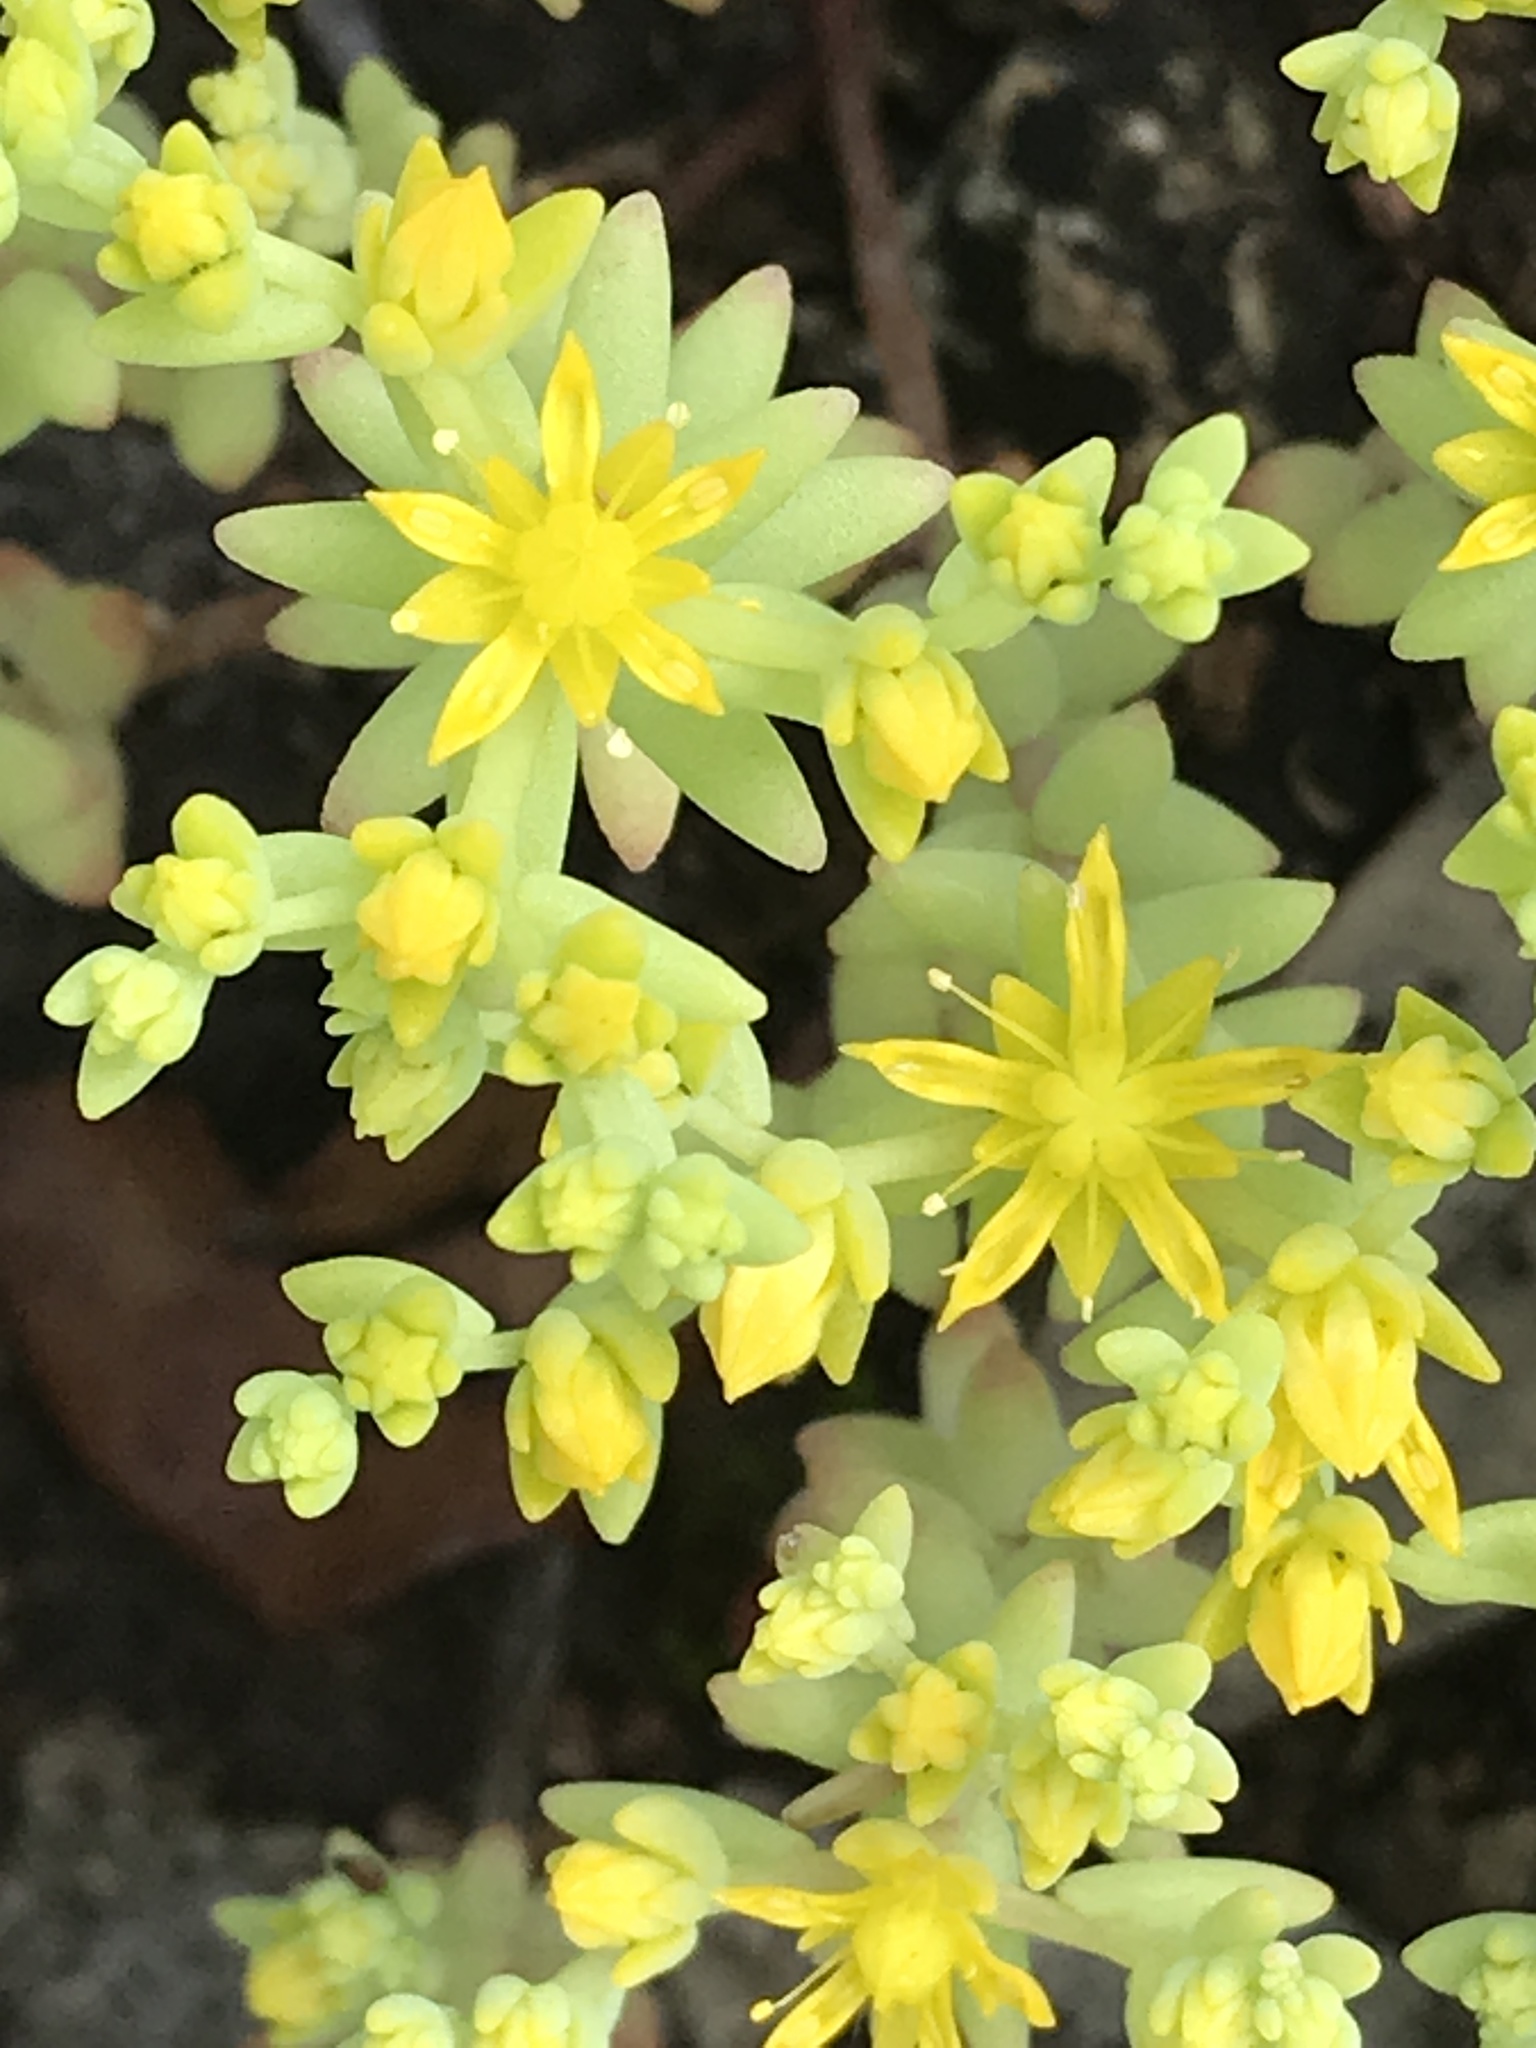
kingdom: Plantae
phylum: Tracheophyta
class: Magnoliopsida
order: Saxifragales
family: Crassulaceae
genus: Sedum
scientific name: Sedum nuttallii
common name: Yellow stonecrop
